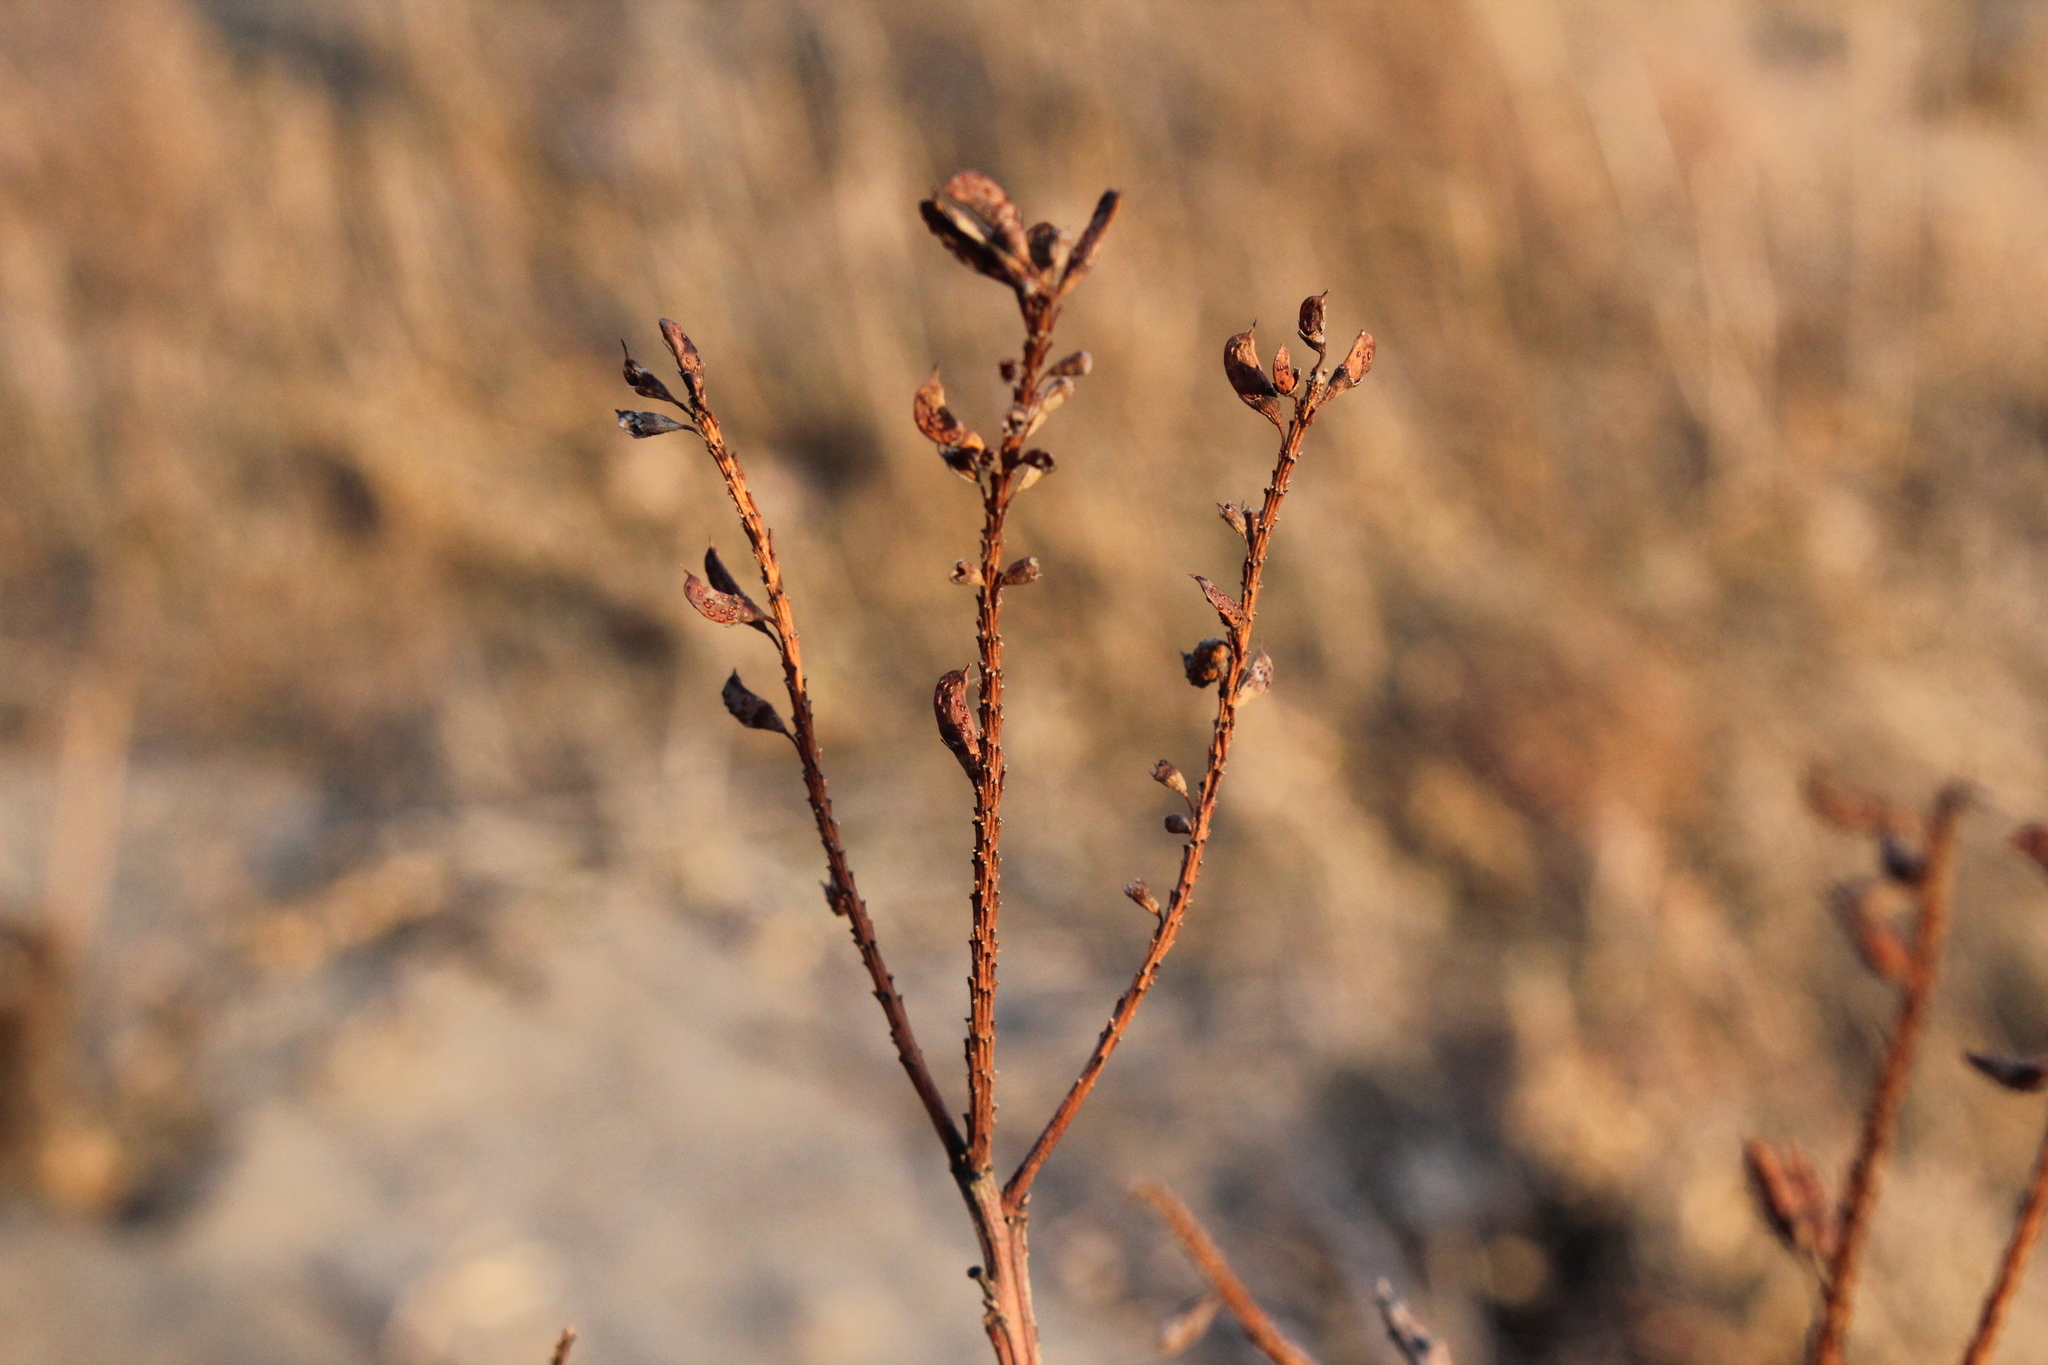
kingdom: Plantae
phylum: Tracheophyta
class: Magnoliopsida
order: Fabales
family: Fabaceae
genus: Amorpha
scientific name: Amorpha fruticosa
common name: False indigo
